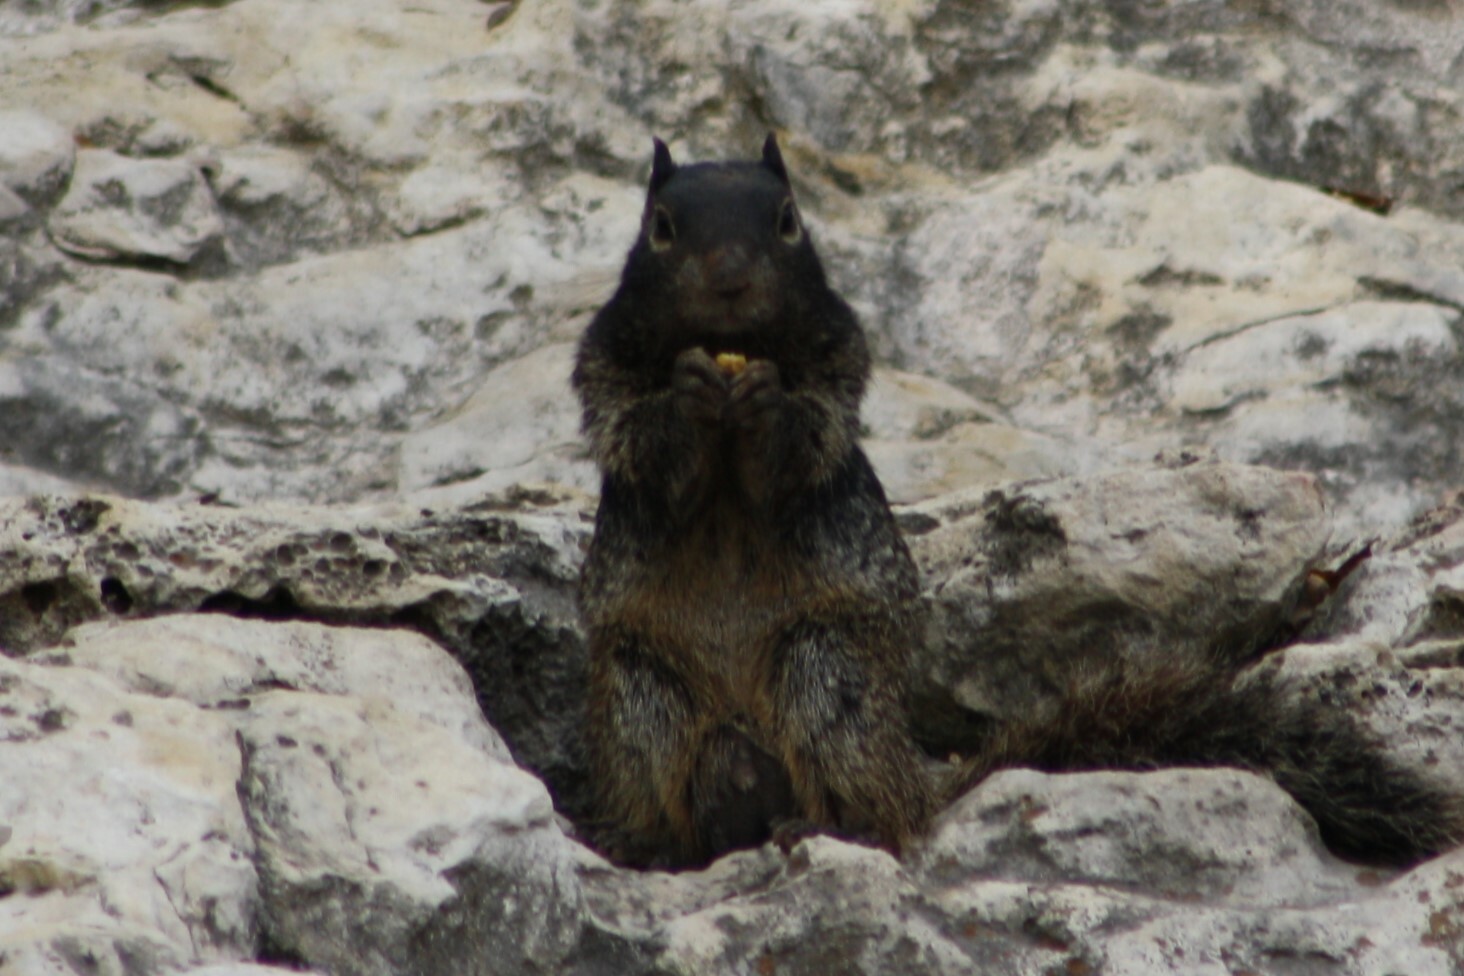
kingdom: Animalia
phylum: Chordata
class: Mammalia
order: Rodentia
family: Sciuridae
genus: Otospermophilus
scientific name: Otospermophilus variegatus
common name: Rock squirrel
